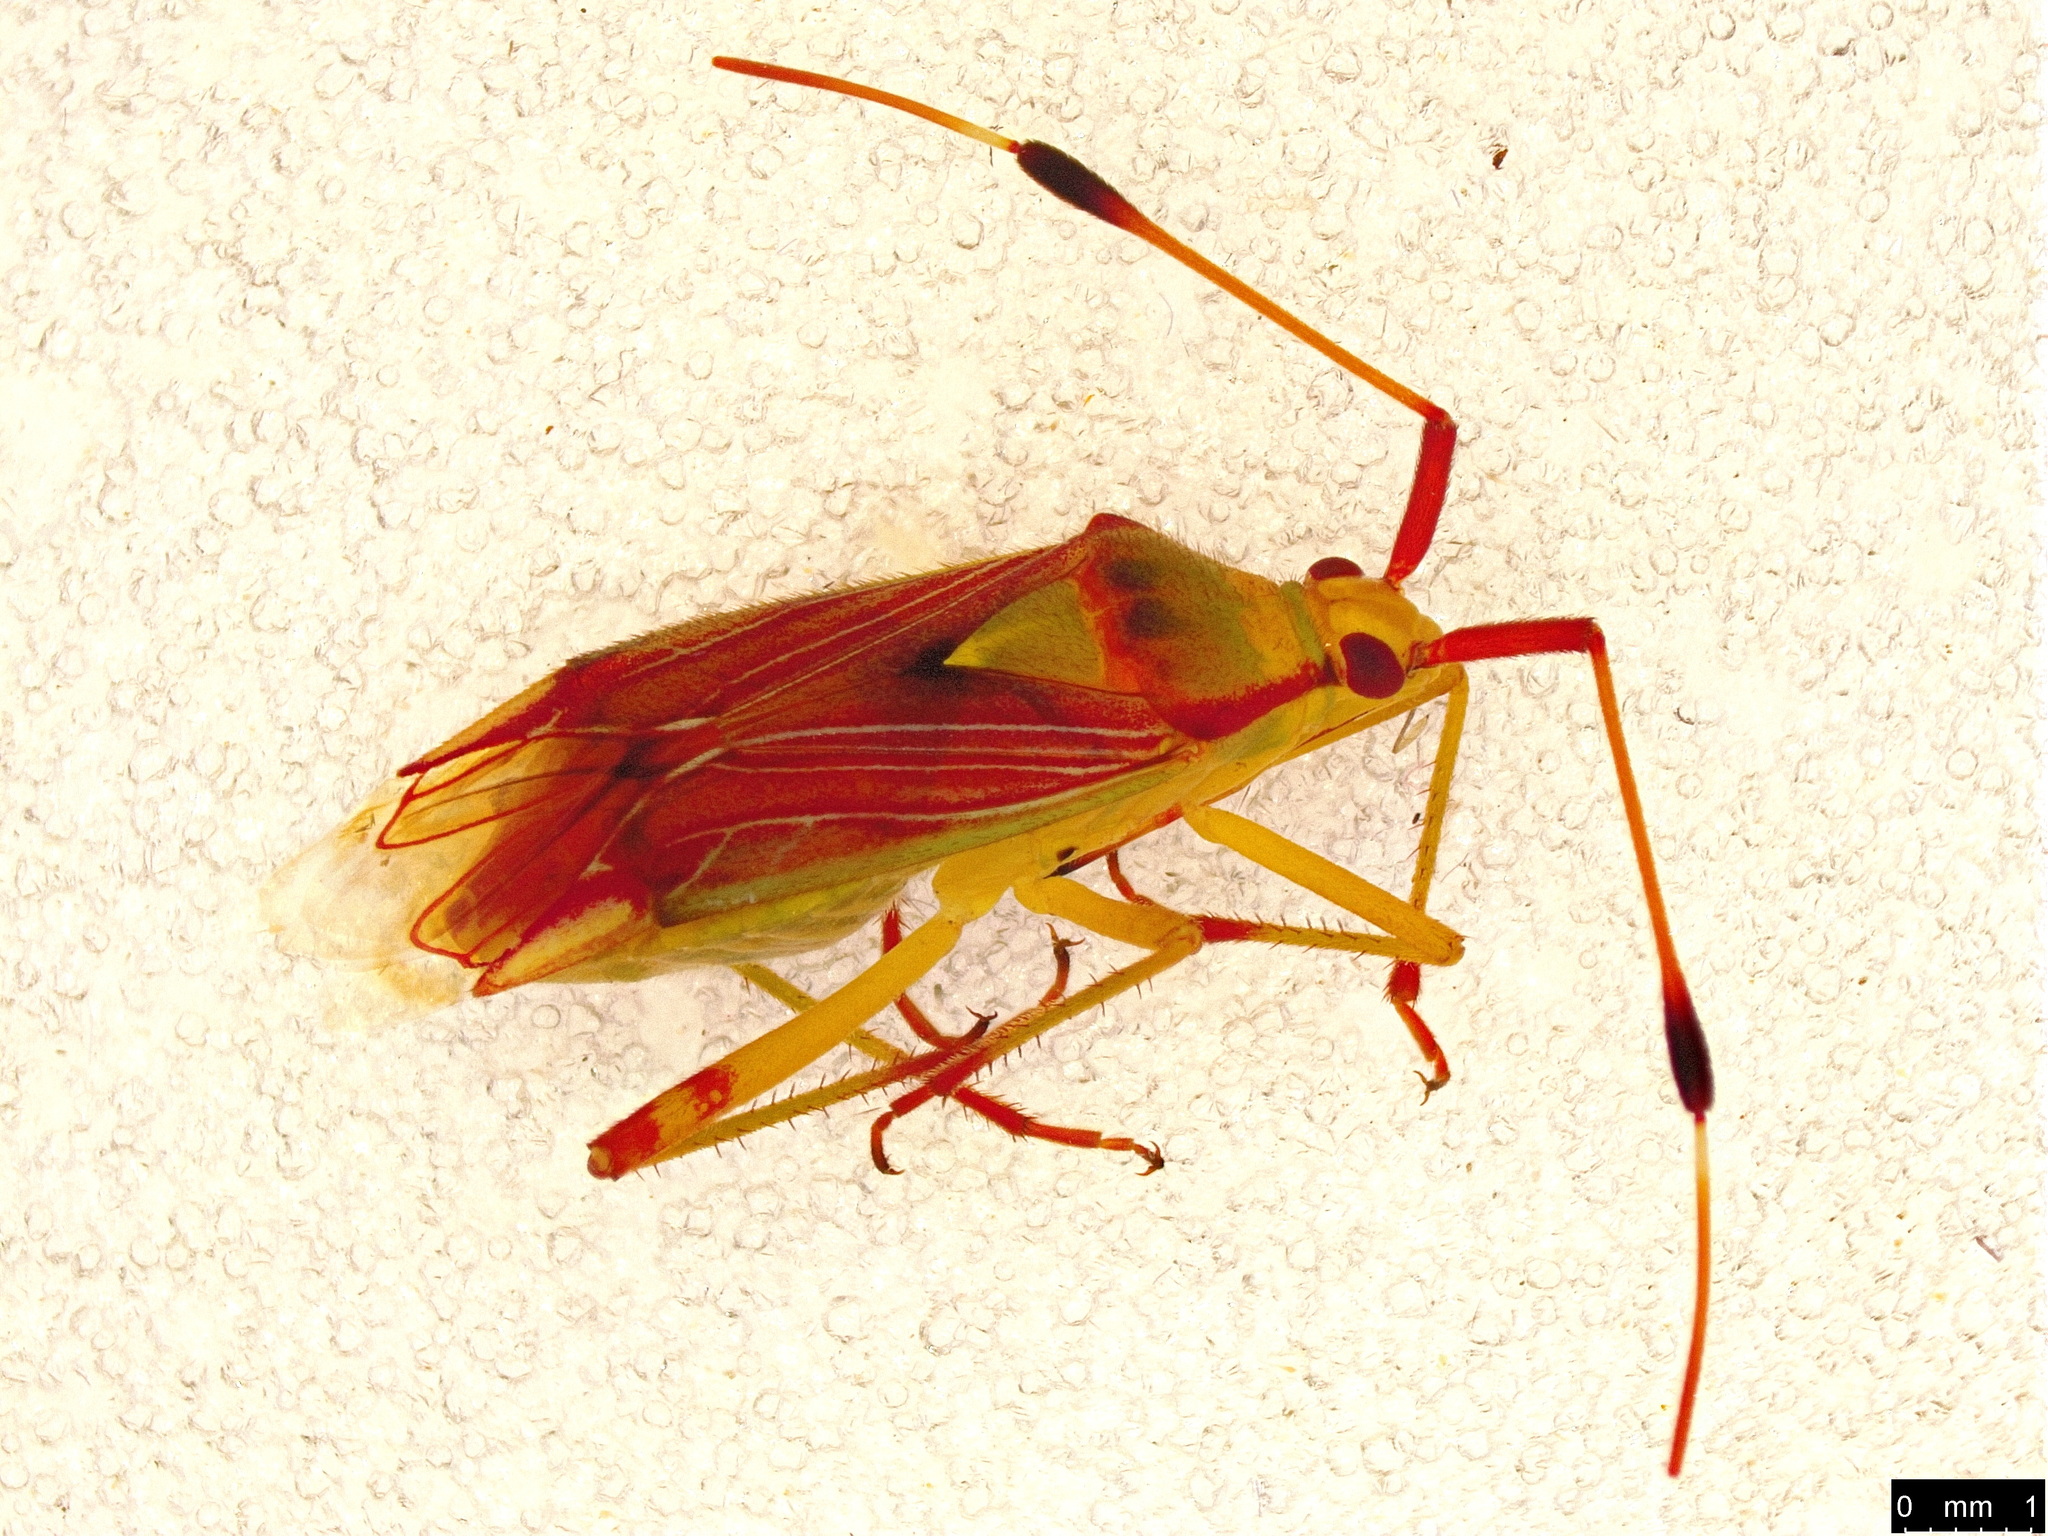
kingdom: Animalia
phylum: Arthropoda
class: Insecta
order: Hemiptera
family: Miridae
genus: Pseudopantilius
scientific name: Pseudopantilius australis
